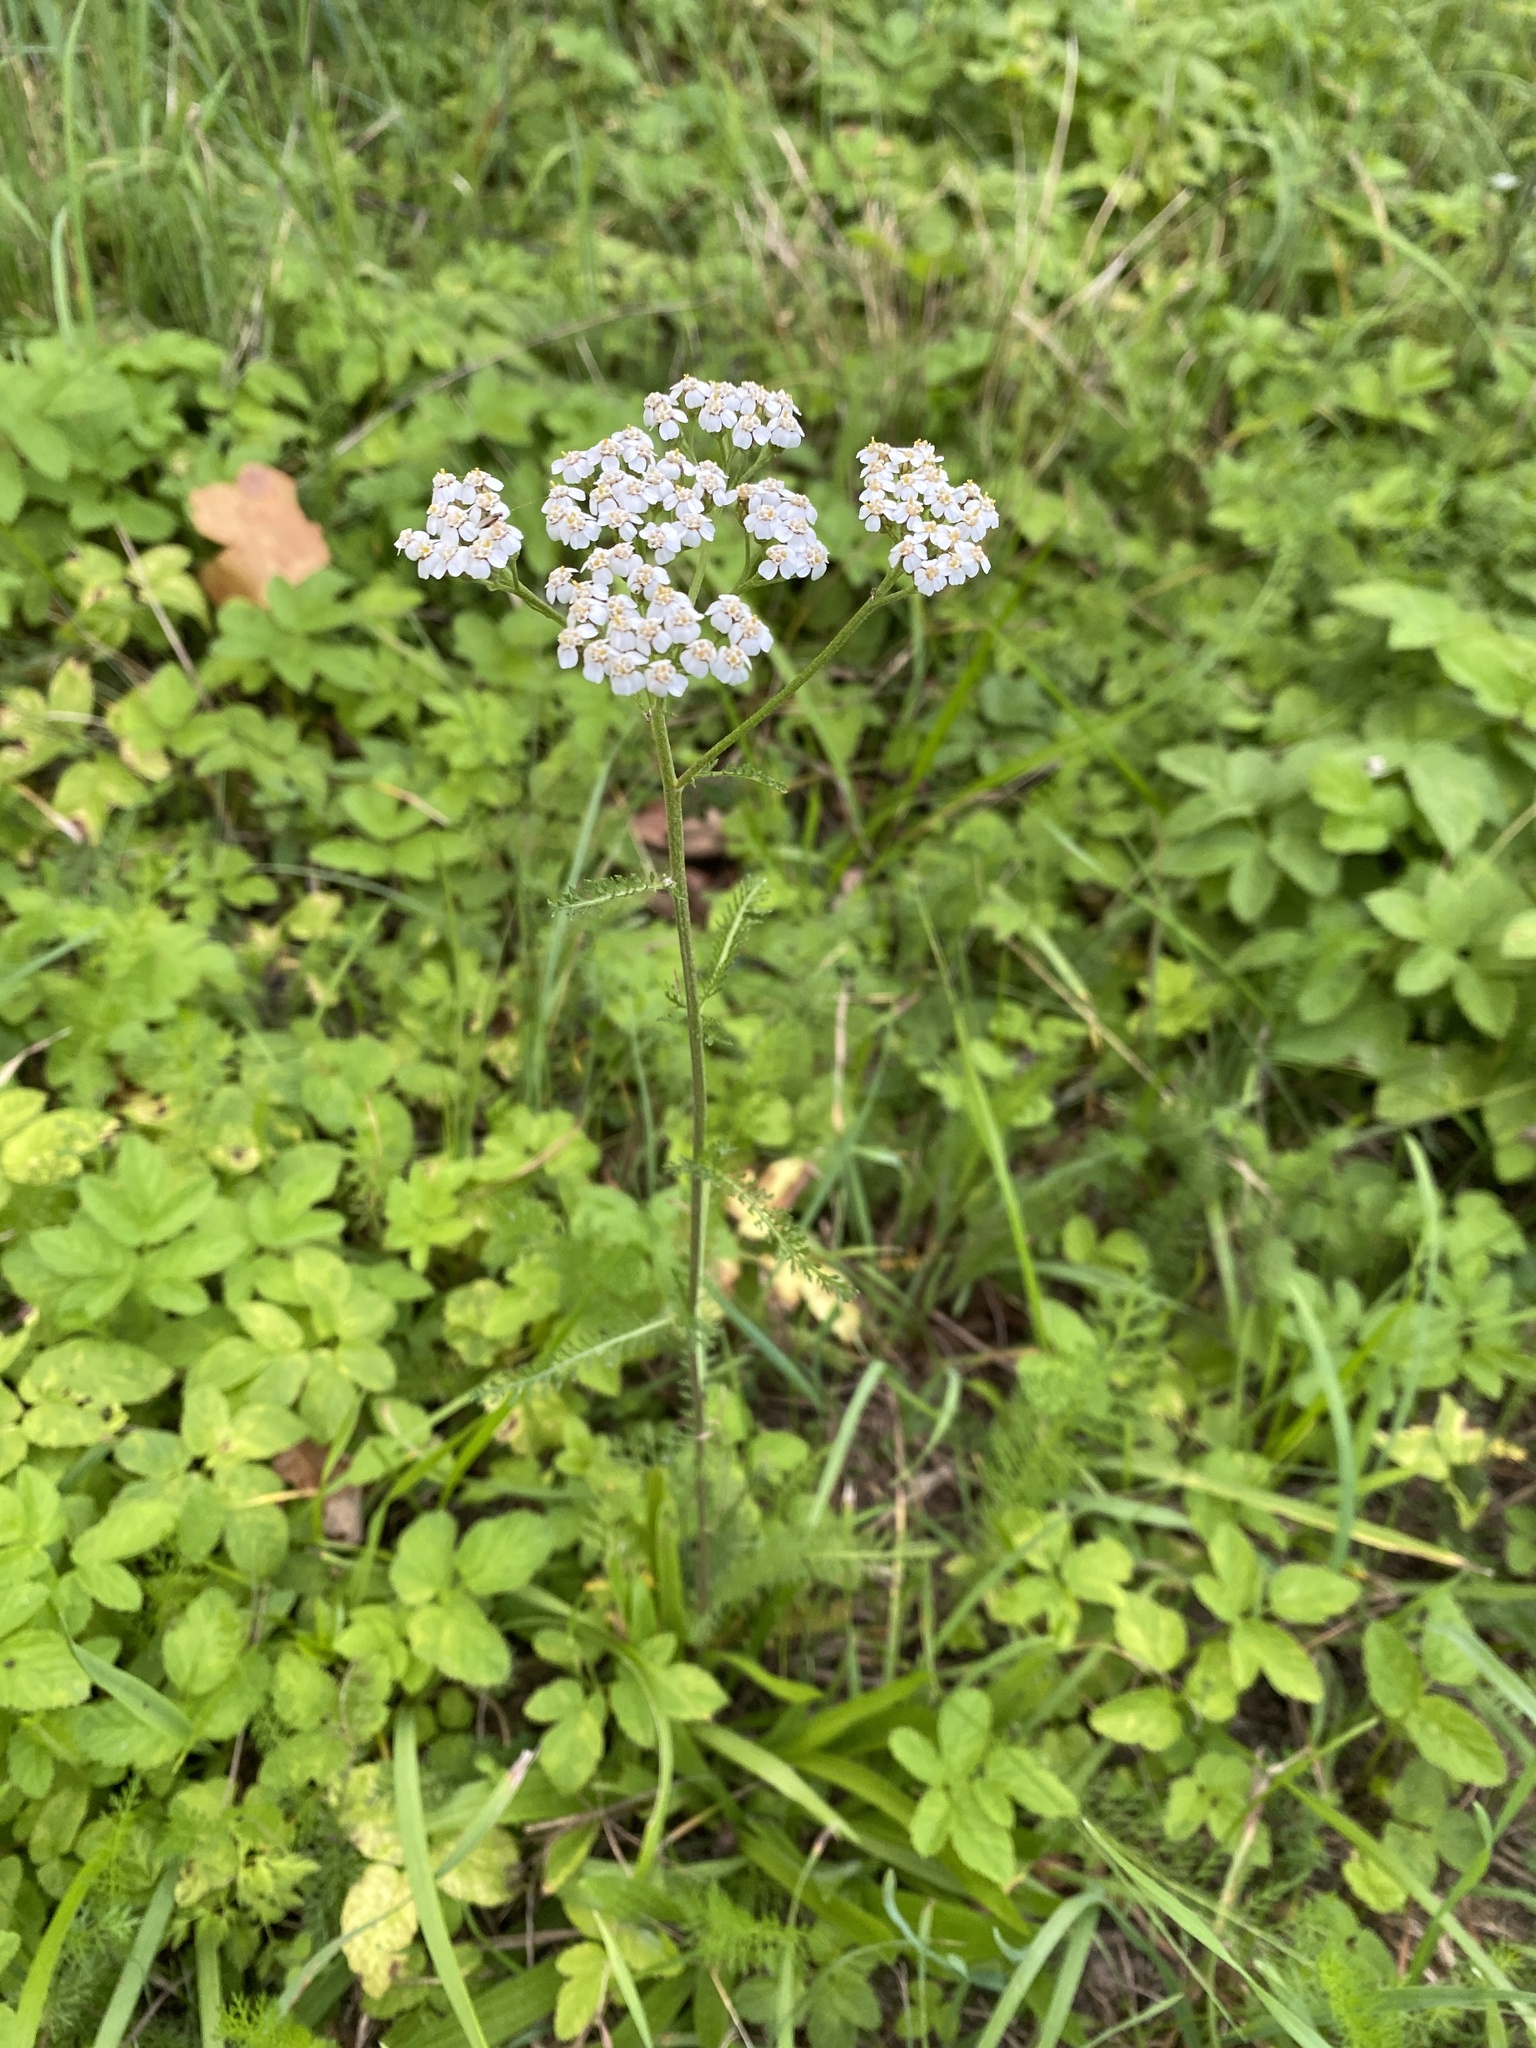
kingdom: Plantae
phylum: Tracheophyta
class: Magnoliopsida
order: Asterales
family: Asteraceae
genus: Achillea
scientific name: Achillea millefolium
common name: Yarrow
